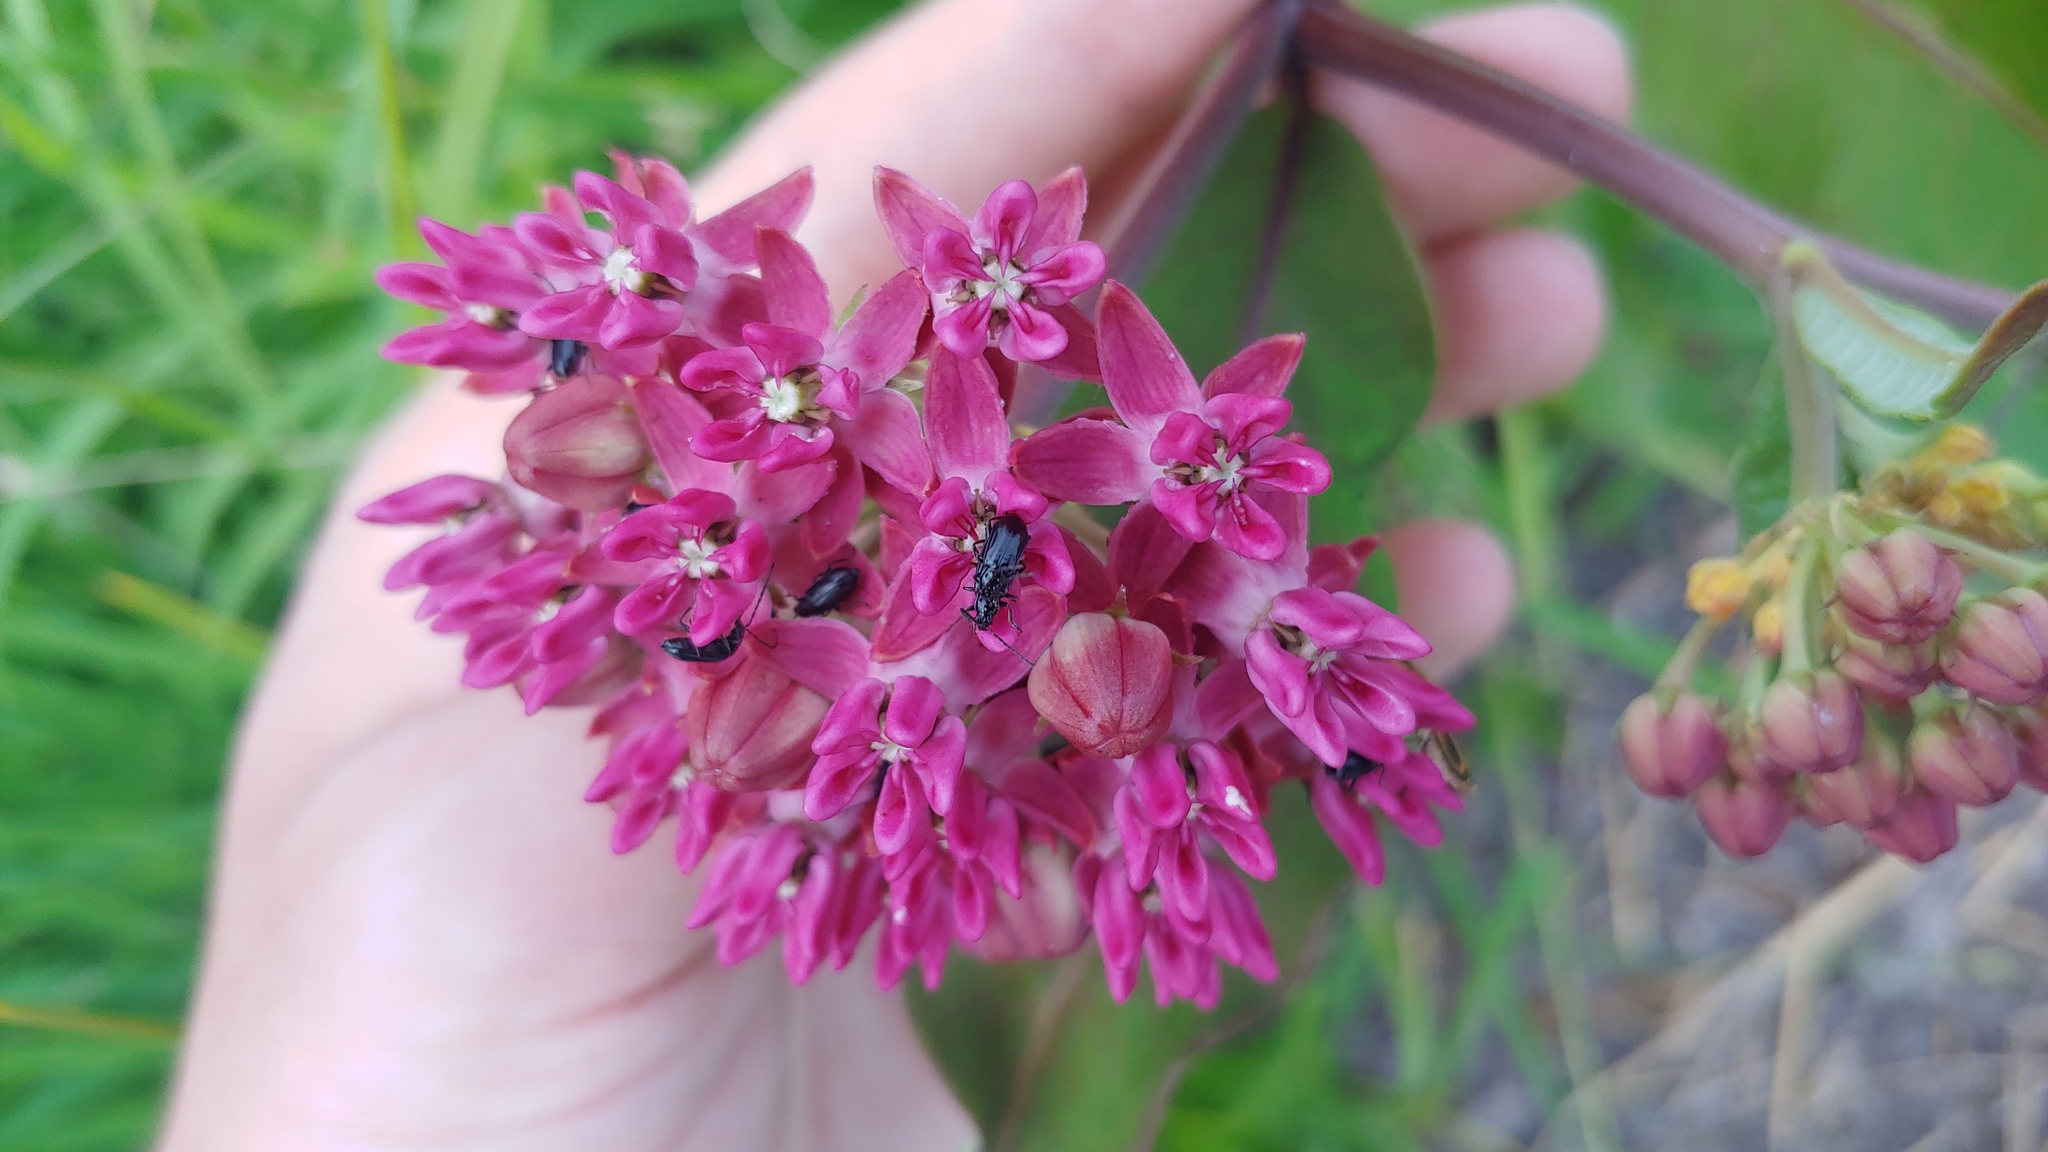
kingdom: Animalia
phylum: Arthropoda
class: Insecta
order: Coleoptera
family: Chrysomelidae
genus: Diabrotica
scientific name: Diabrotica cristata
